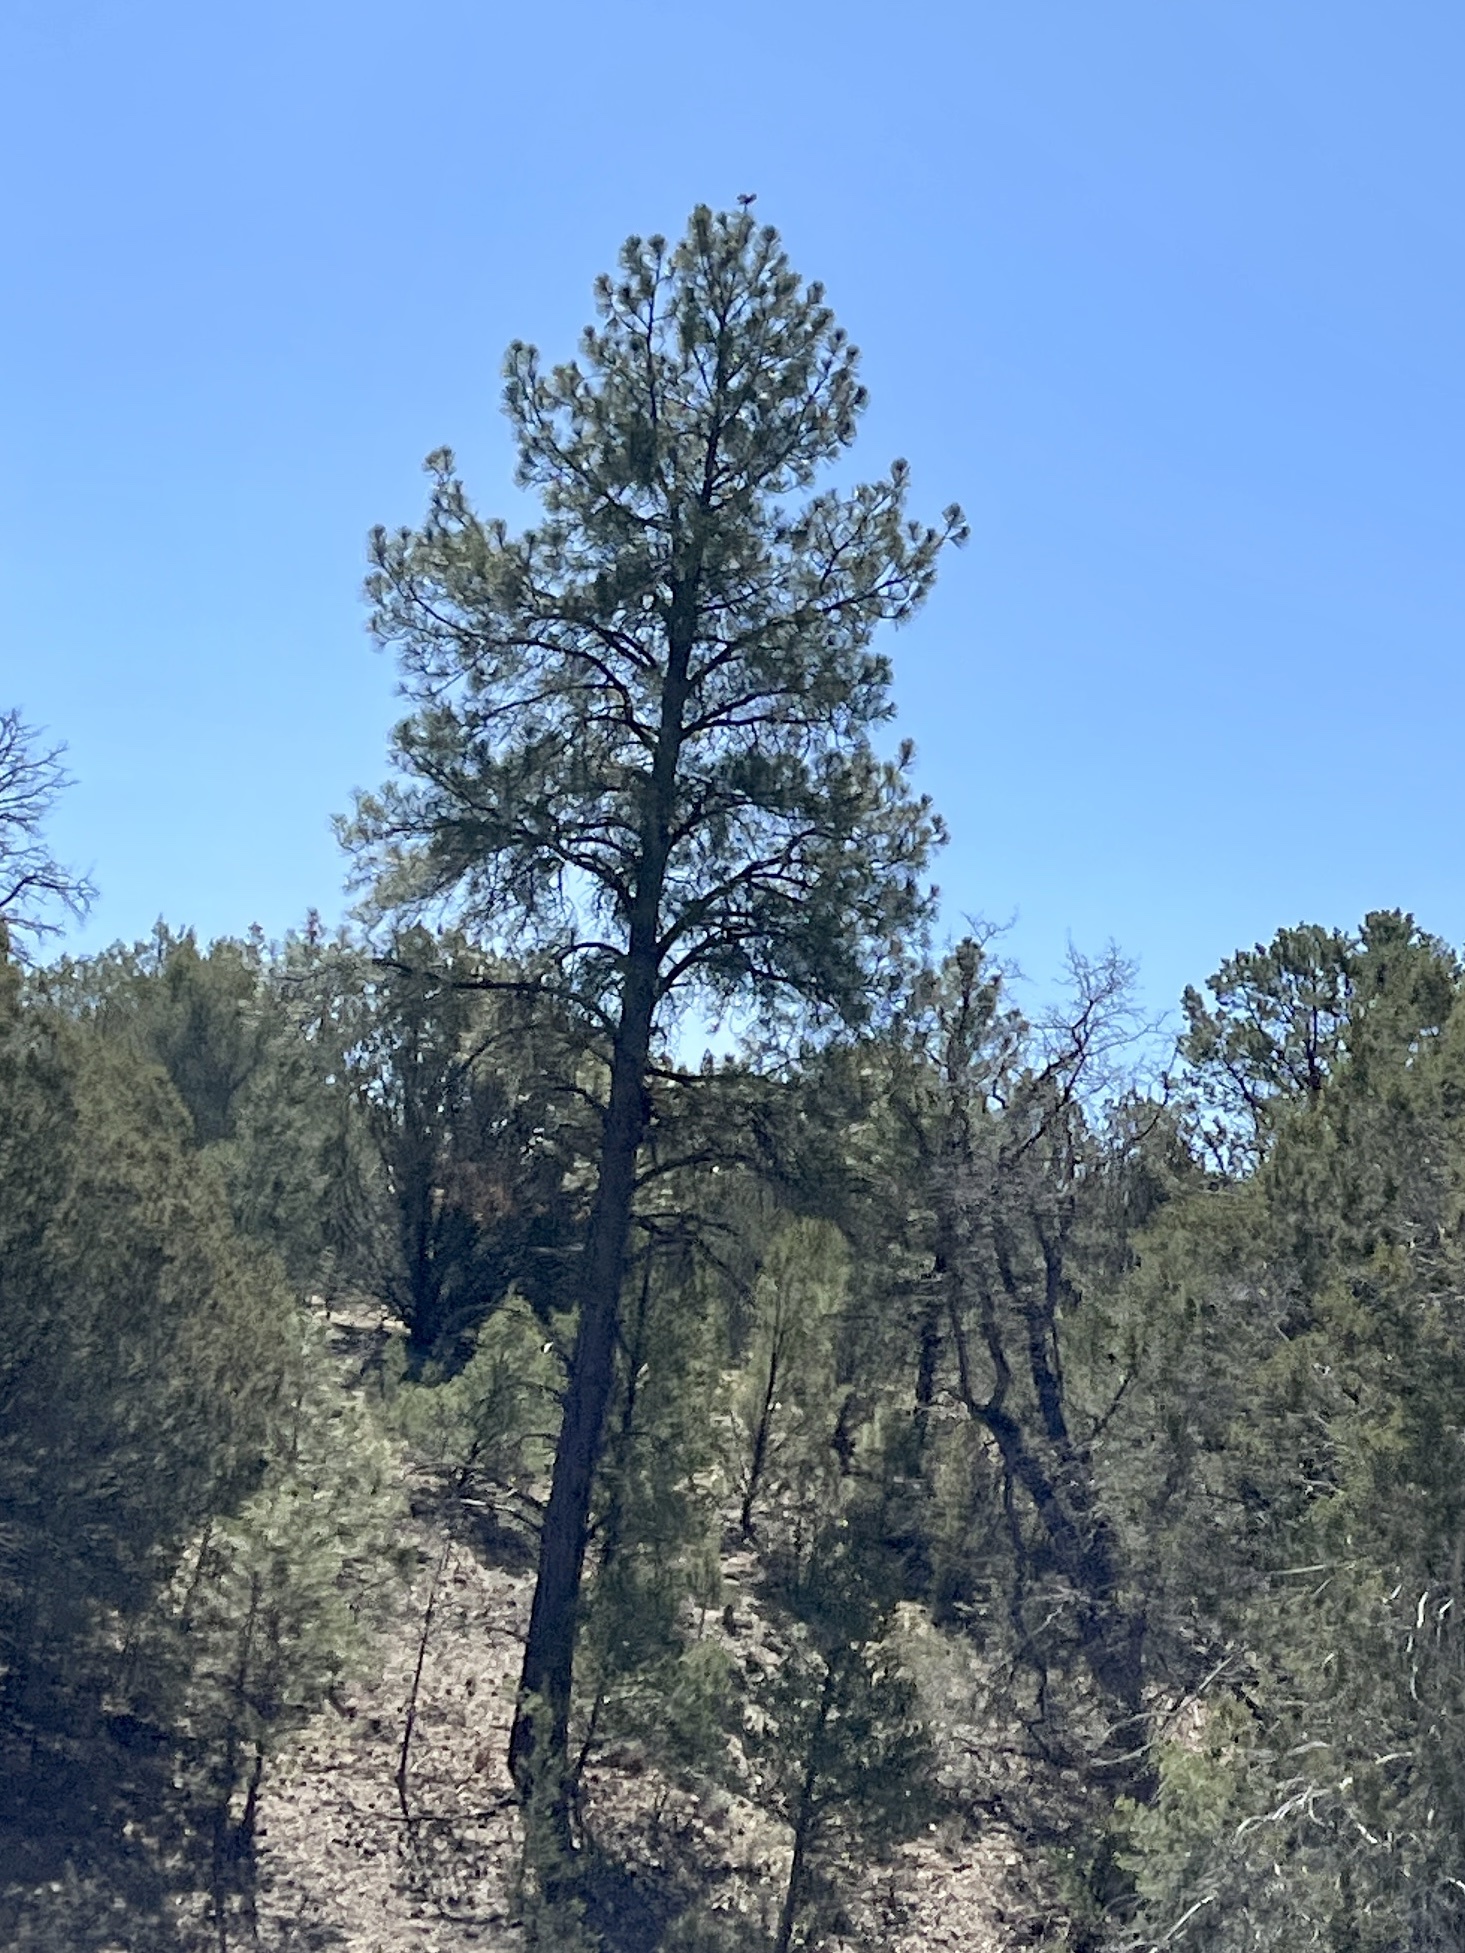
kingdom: Plantae
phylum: Tracheophyta
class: Pinopsida
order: Pinales
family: Pinaceae
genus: Pinus
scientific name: Pinus ponderosa
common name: Western yellow-pine
